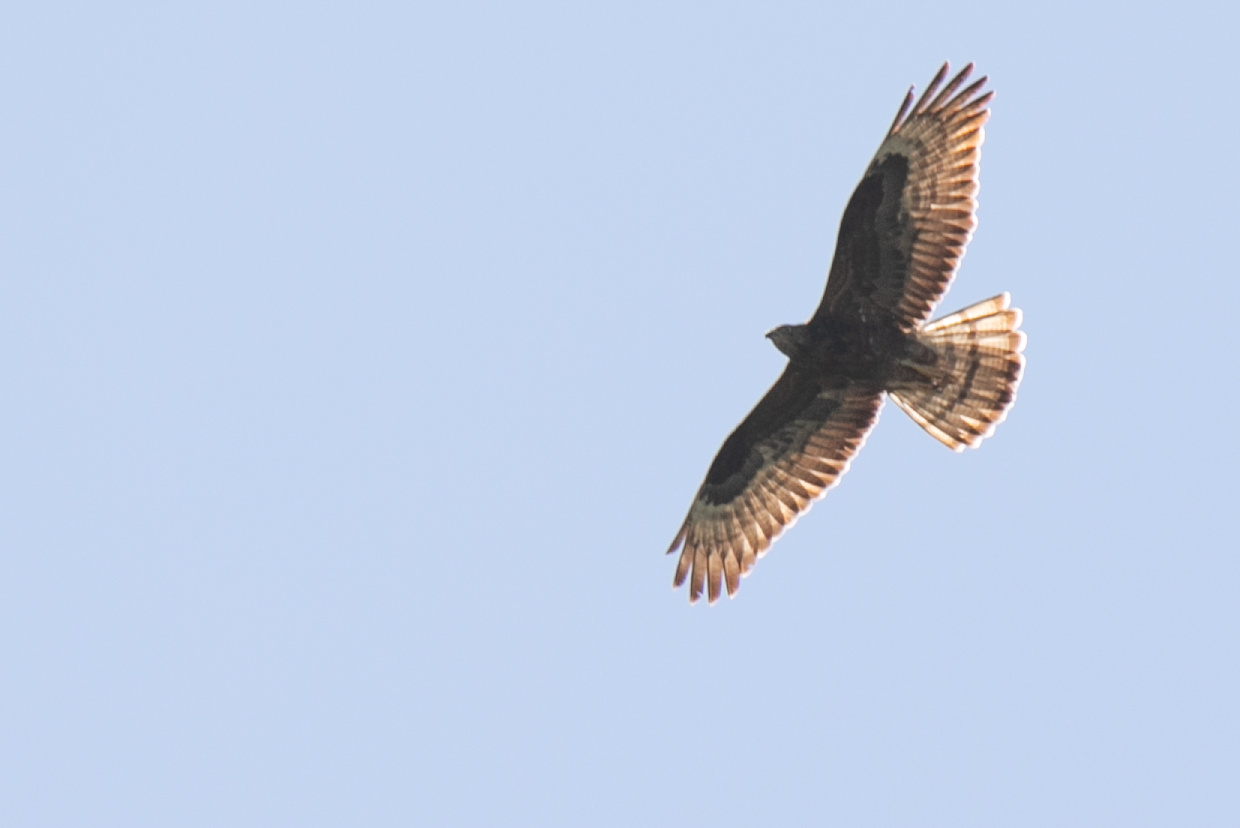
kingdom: Animalia
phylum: Chordata
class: Aves
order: Accipitriformes
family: Accipitridae
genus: Pernis
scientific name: Pernis apivorus
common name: European honey buzzard
